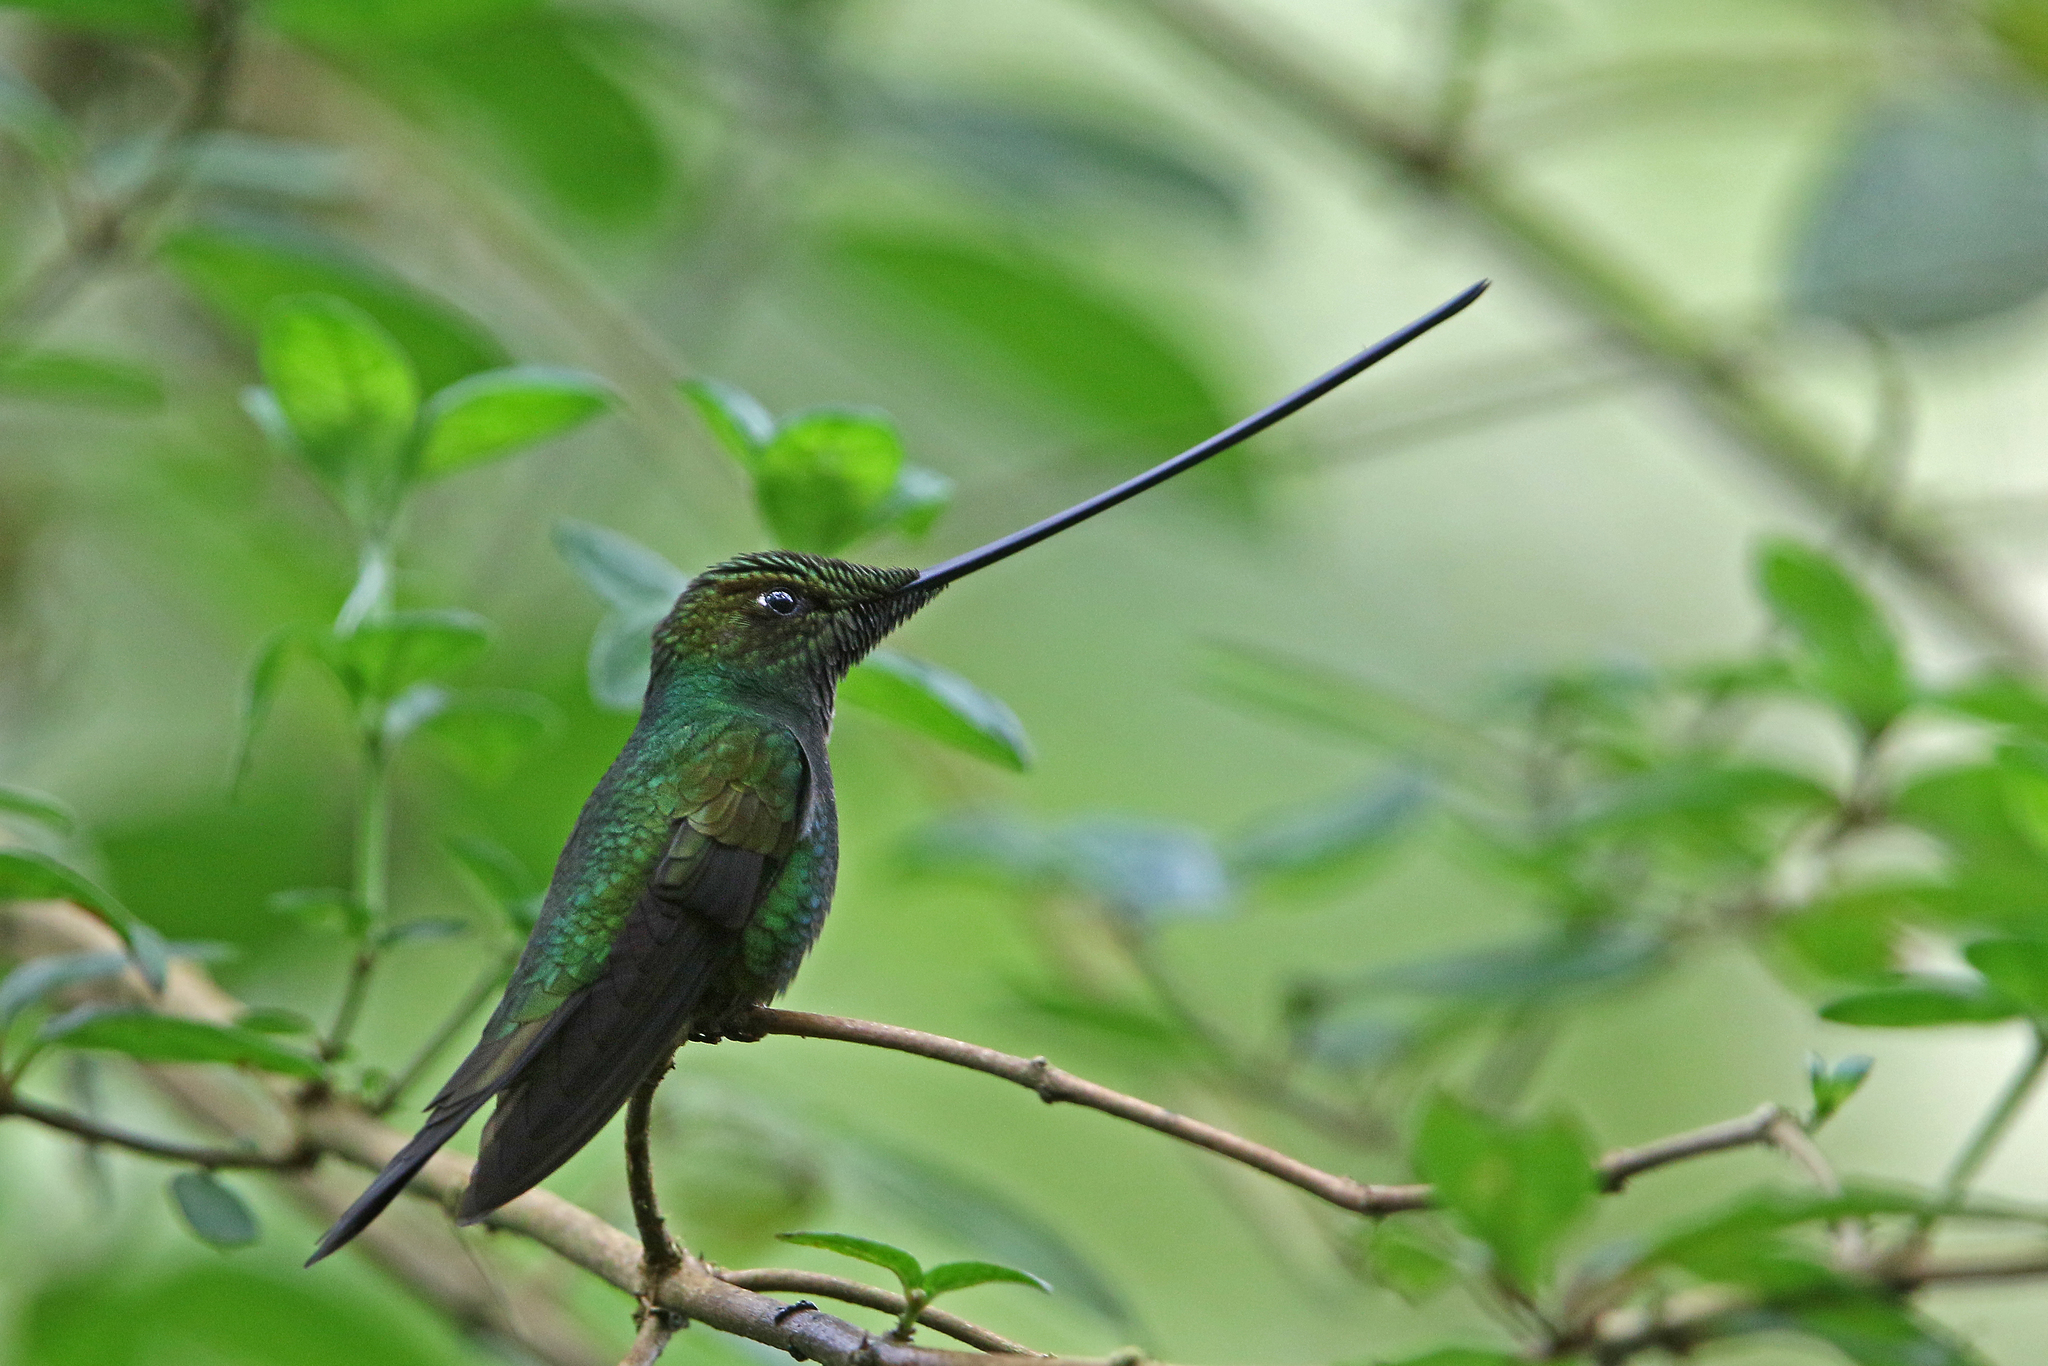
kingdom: Animalia
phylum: Chordata
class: Aves
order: Apodiformes
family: Trochilidae
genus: Ensifera
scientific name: Ensifera ensifera
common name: Sword-billed hummingbird
